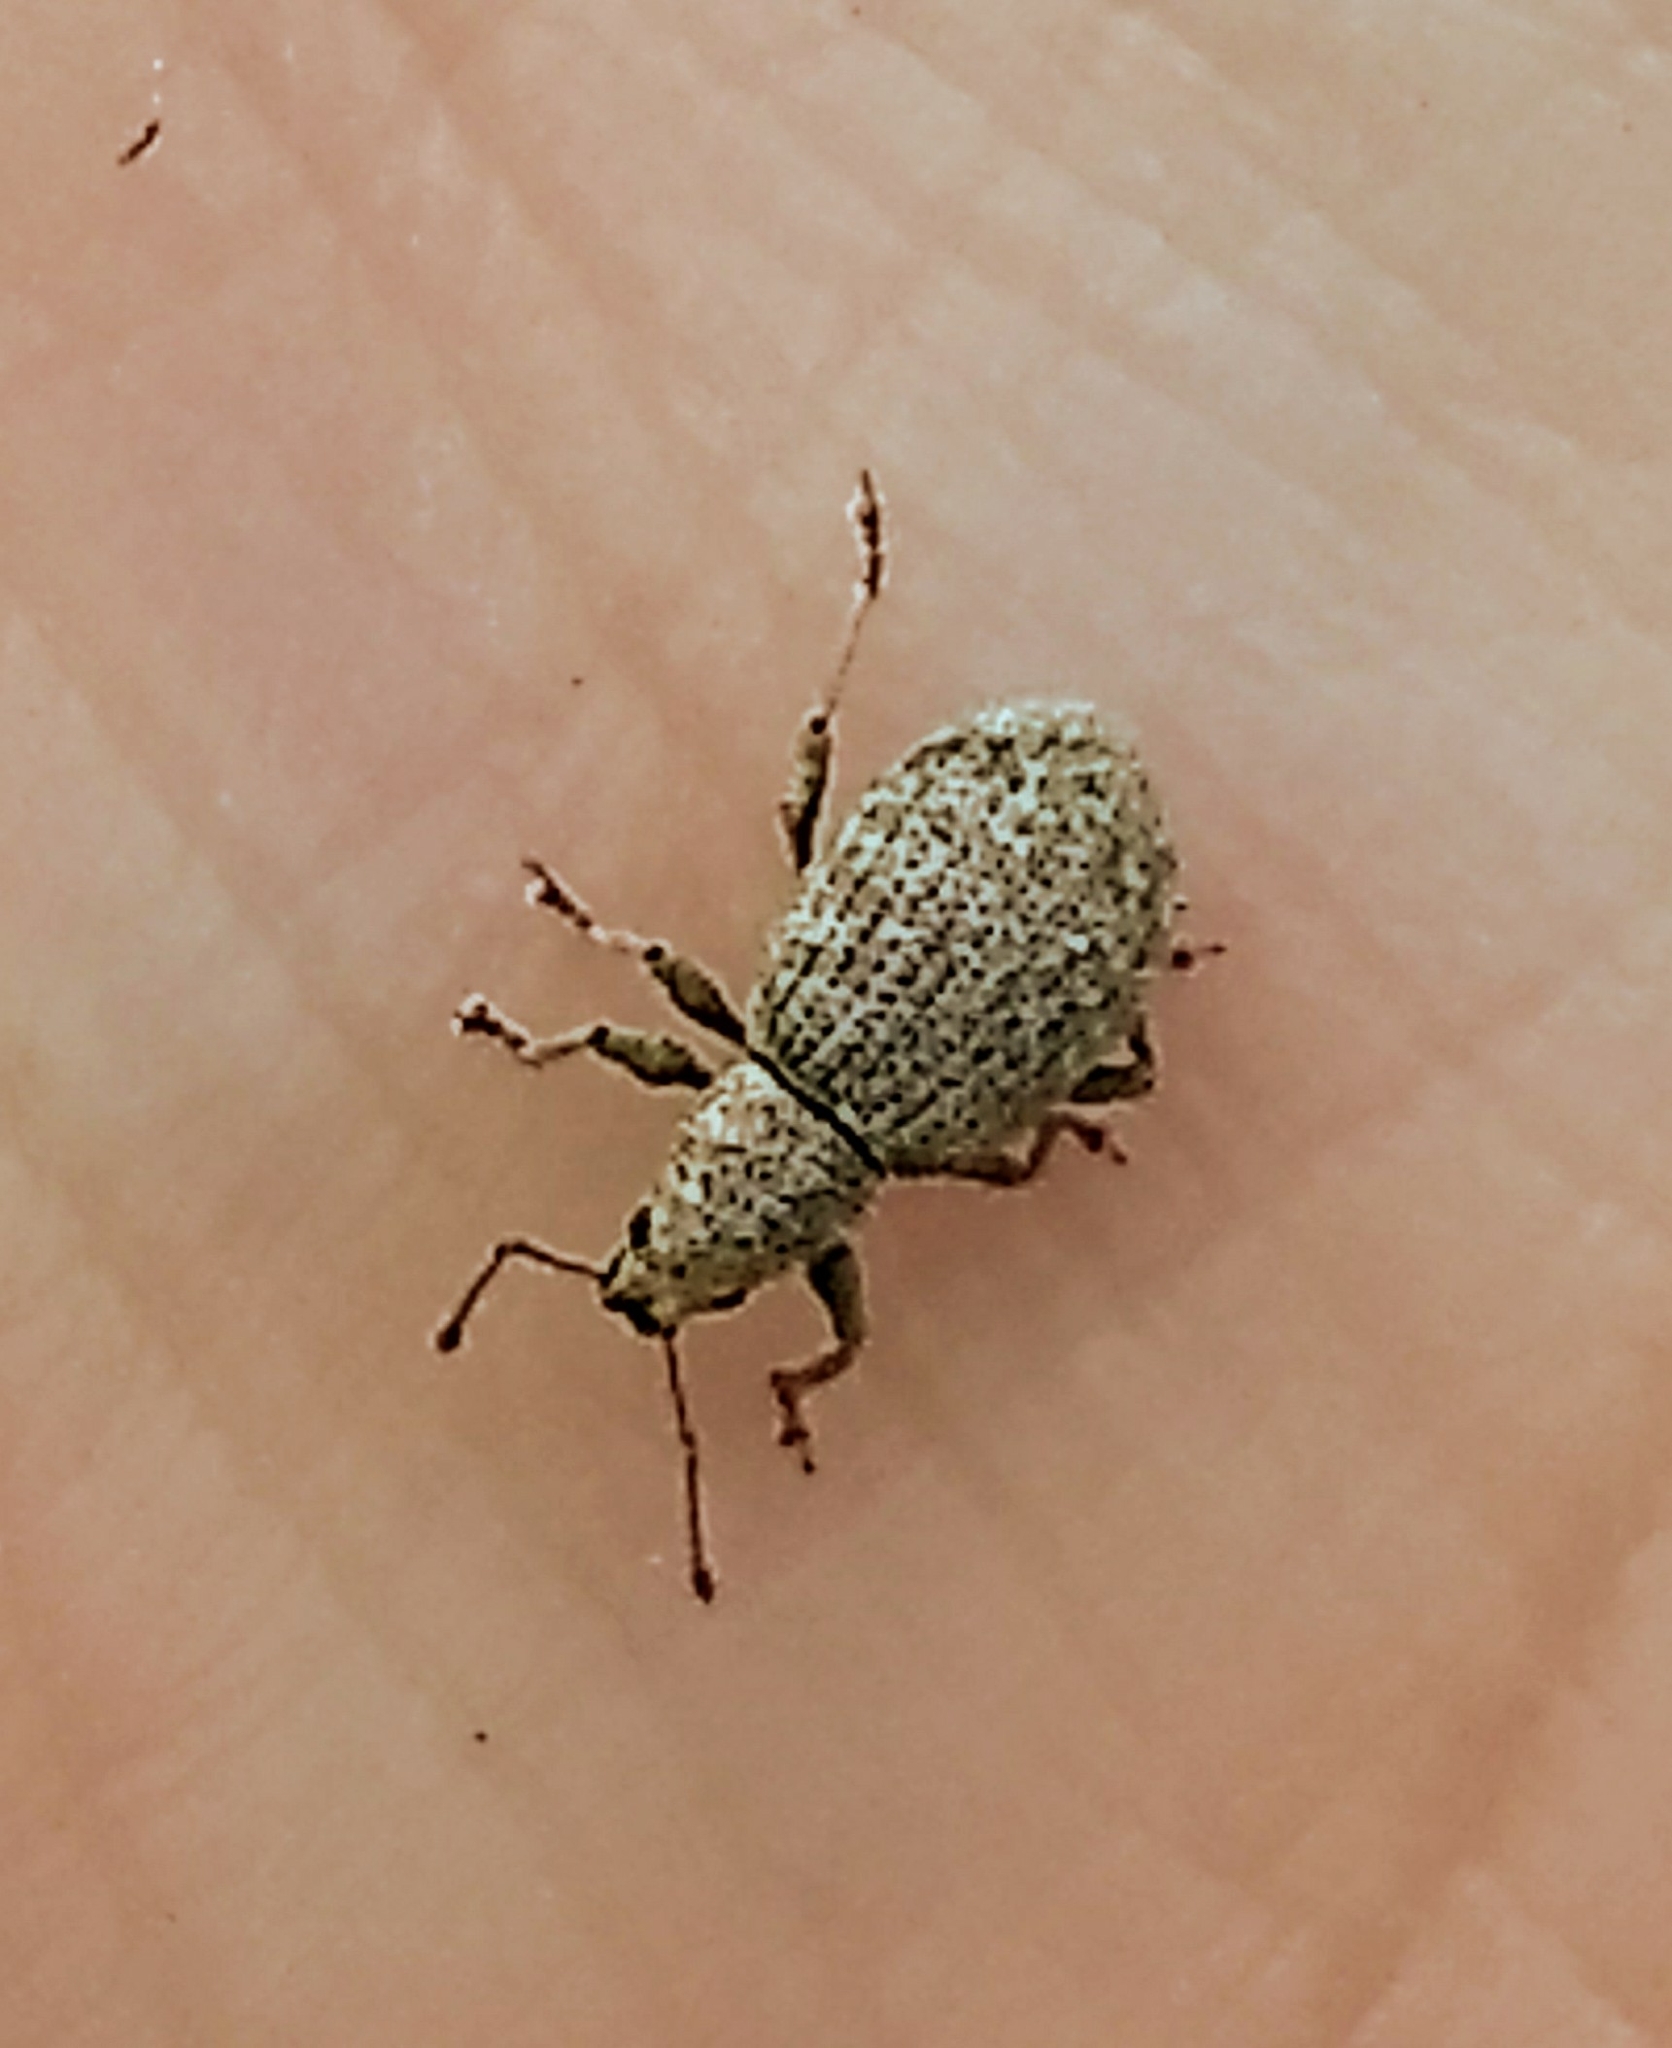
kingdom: Animalia
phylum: Arthropoda
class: Insecta
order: Coleoptera
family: Curculionidae
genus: Sciaphilus
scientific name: Sciaphilus asperatus
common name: Weevil
